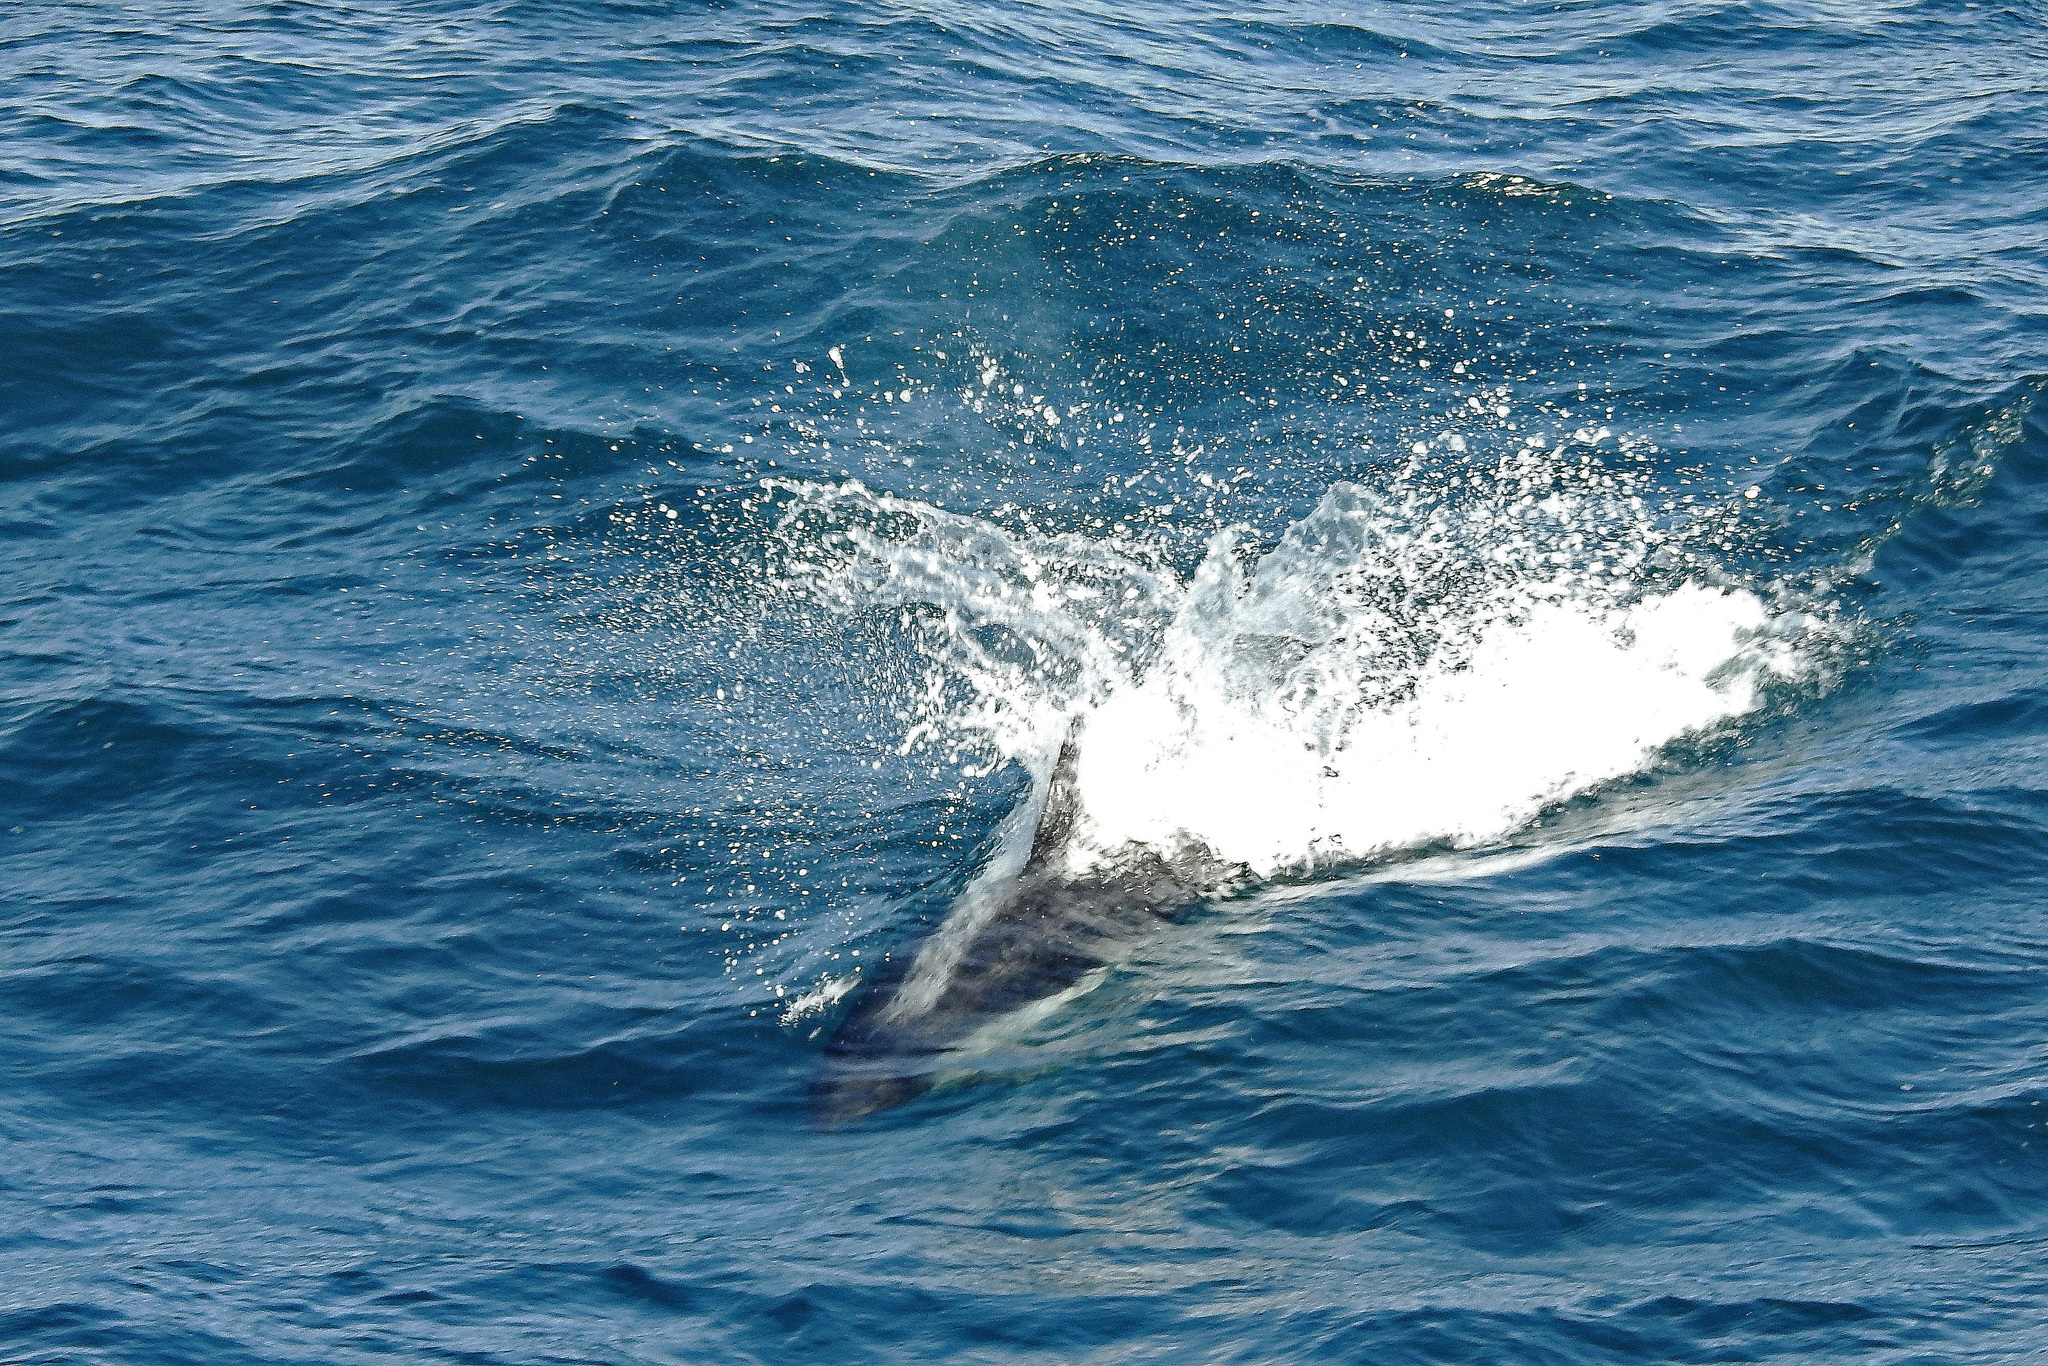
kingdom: Animalia
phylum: Chordata
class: Mammalia
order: Cetacea
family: Delphinidae
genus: Lagenorhynchus
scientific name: Lagenorhynchus australis
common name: Peale's dolphin
